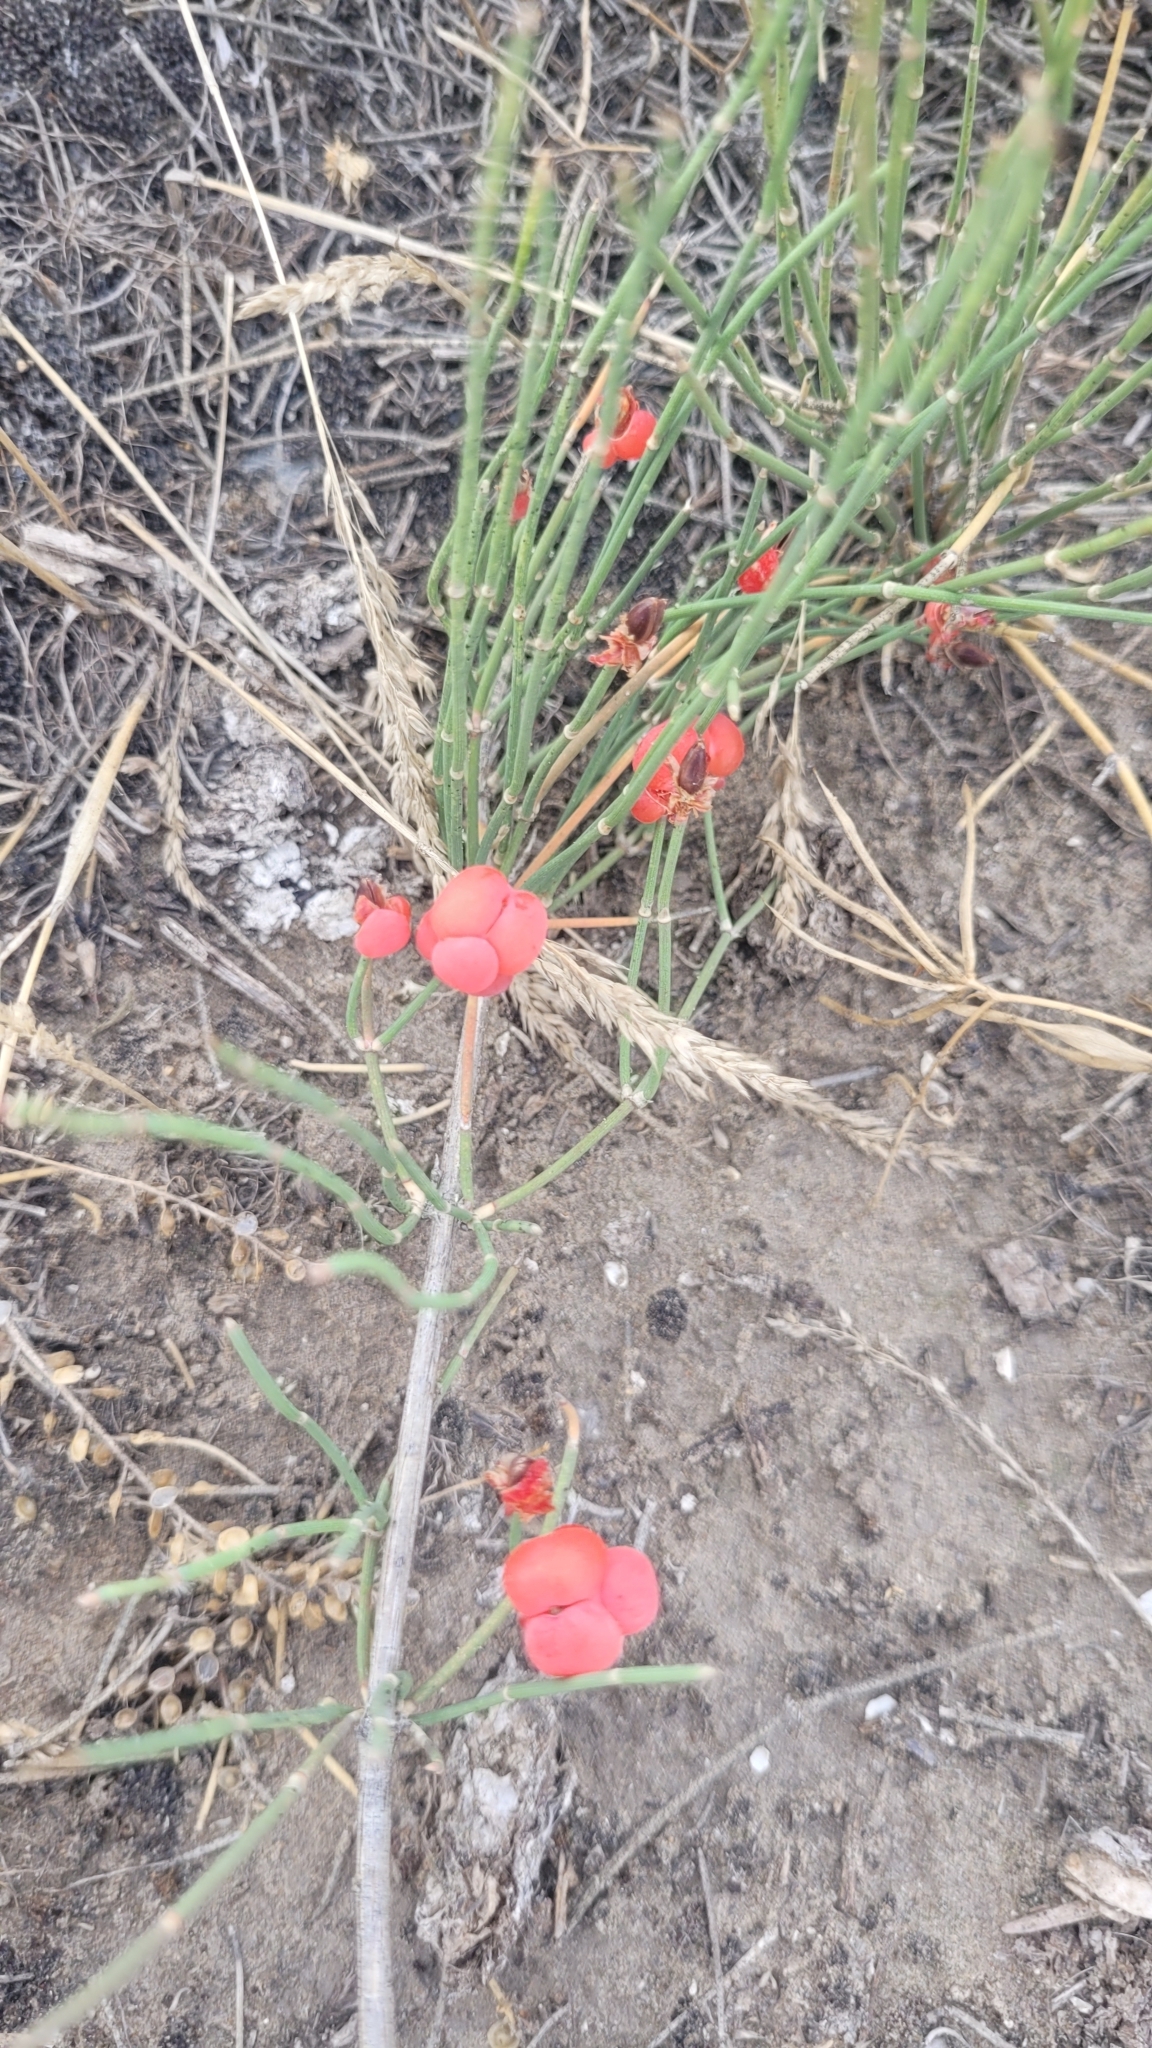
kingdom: Plantae
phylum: Tracheophyta
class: Gnetopsida
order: Ephedrales
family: Ephedraceae
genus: Ephedra
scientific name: Ephedra distachya
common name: Sea grape
